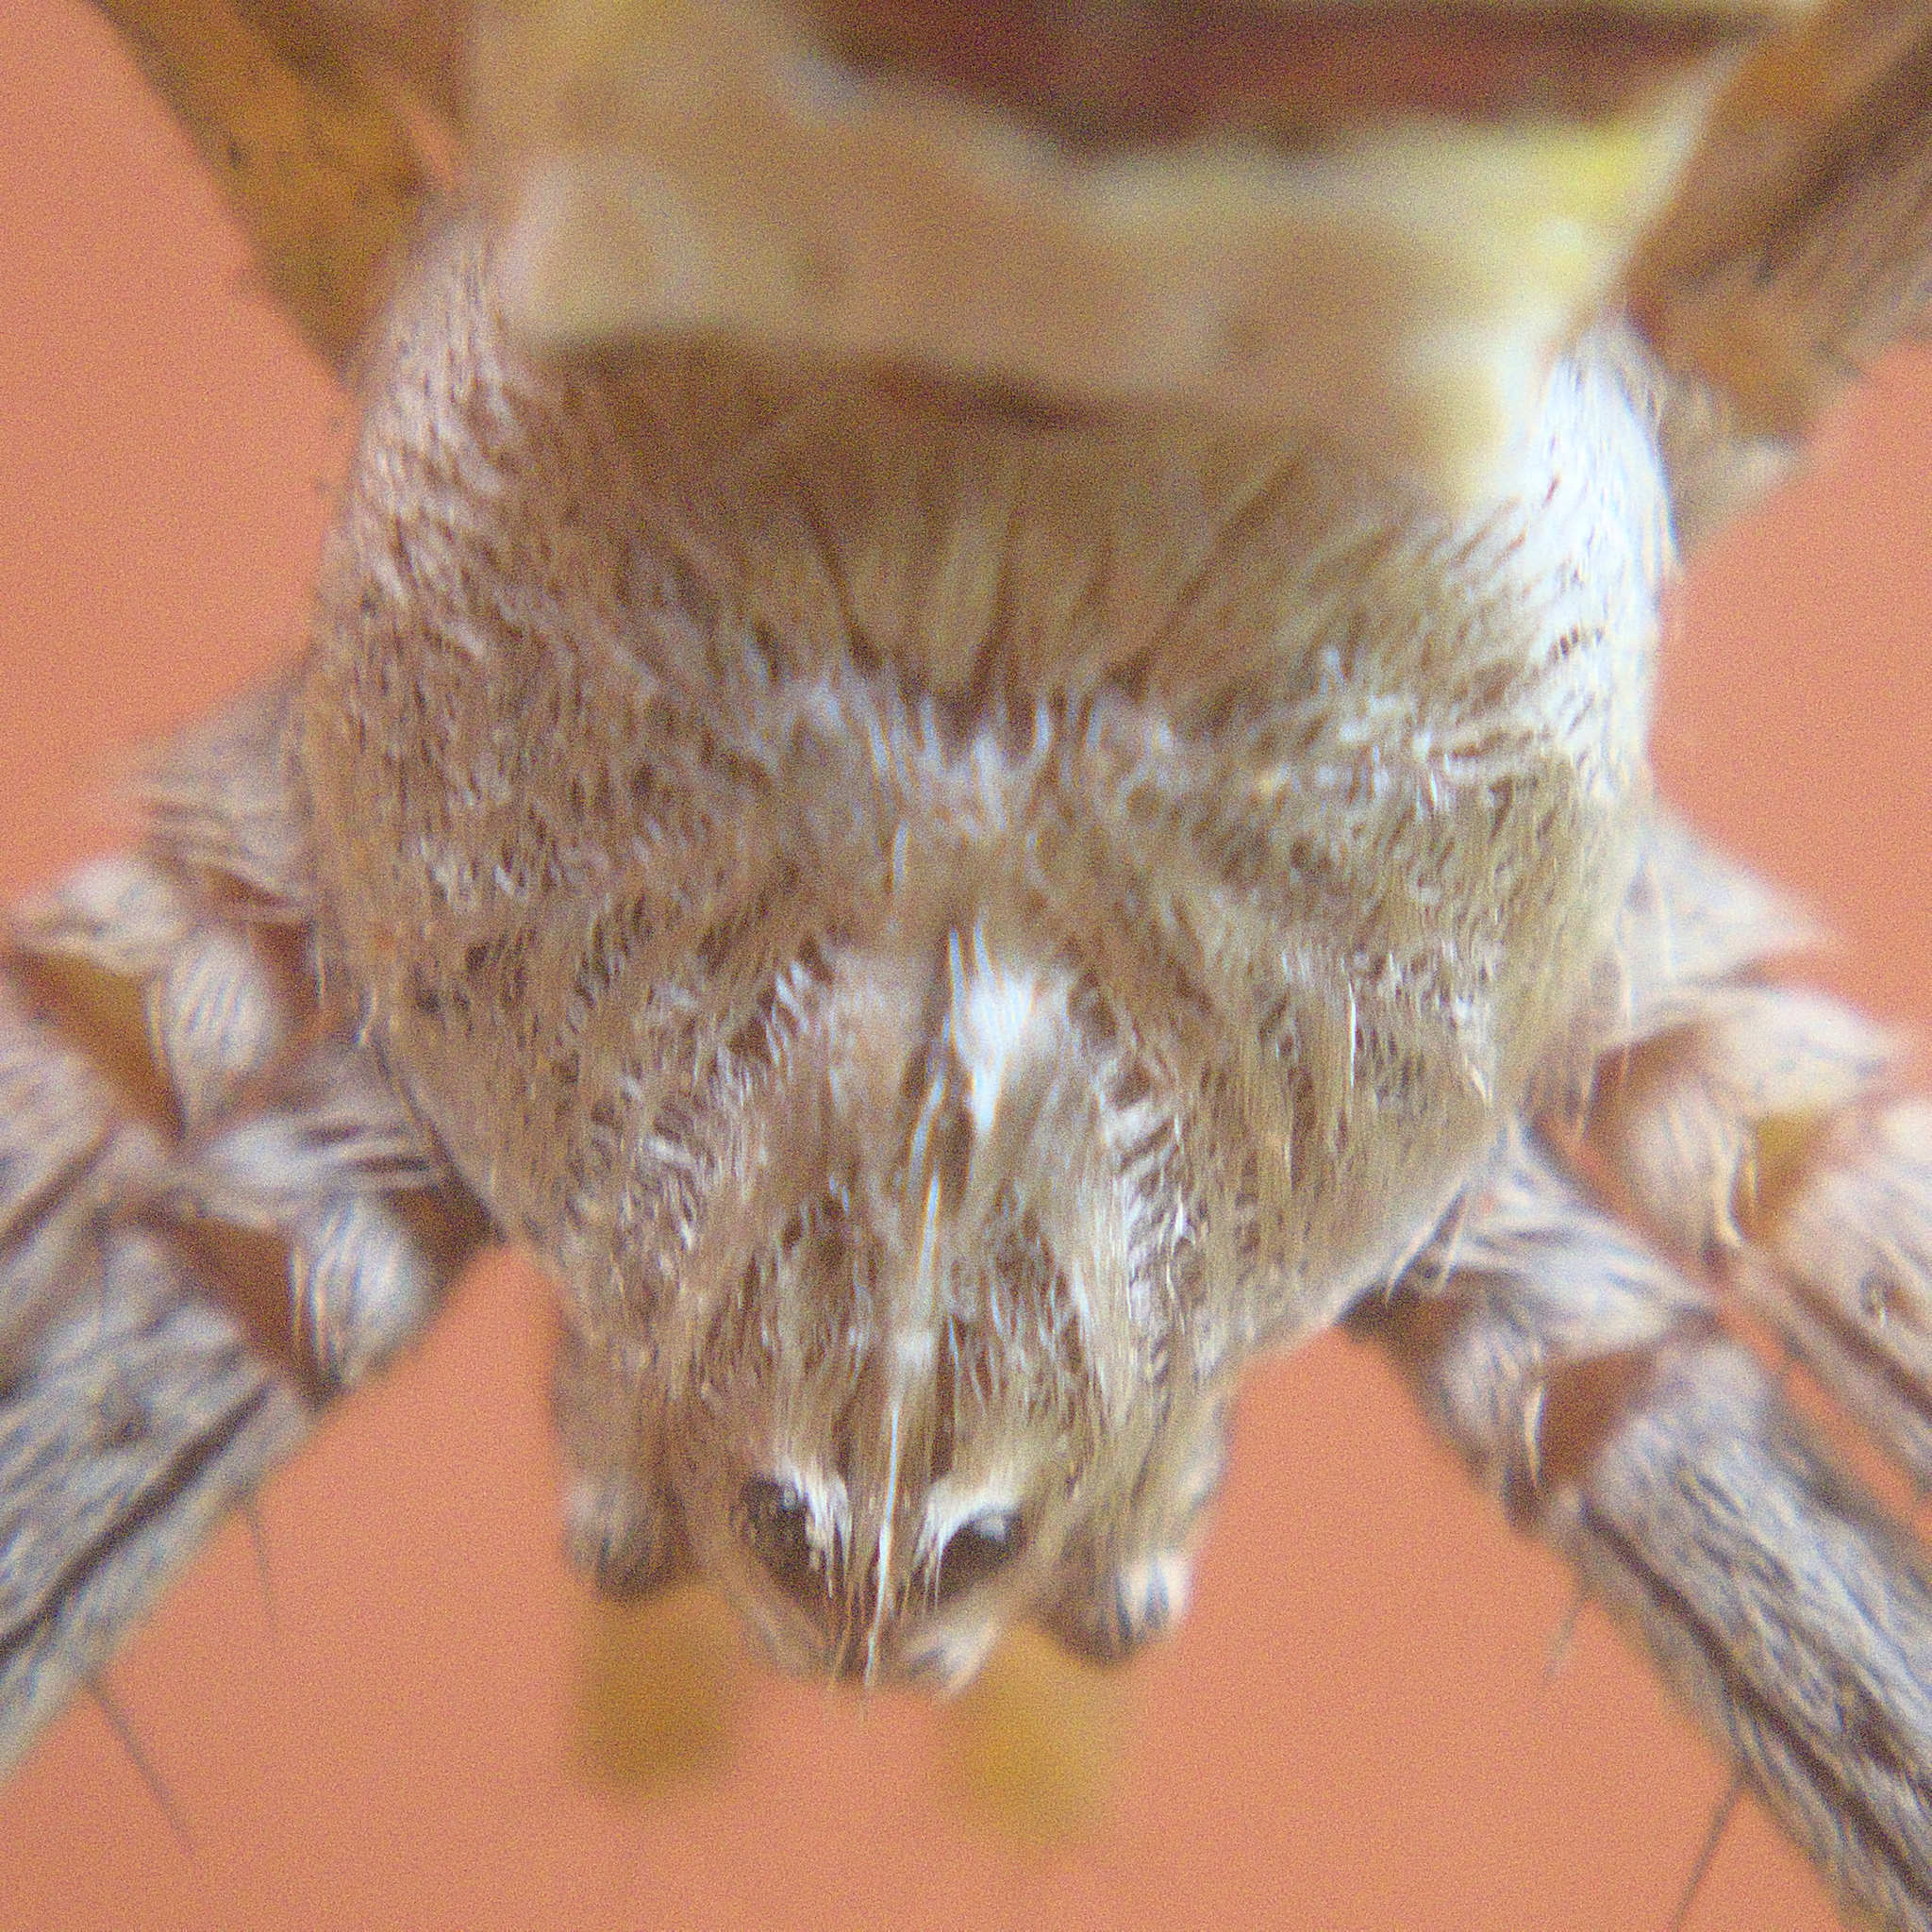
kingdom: Animalia
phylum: Arthropoda
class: Arachnida
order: Araneae
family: Araneidae
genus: Argiope
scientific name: Argiope keyserlingi
